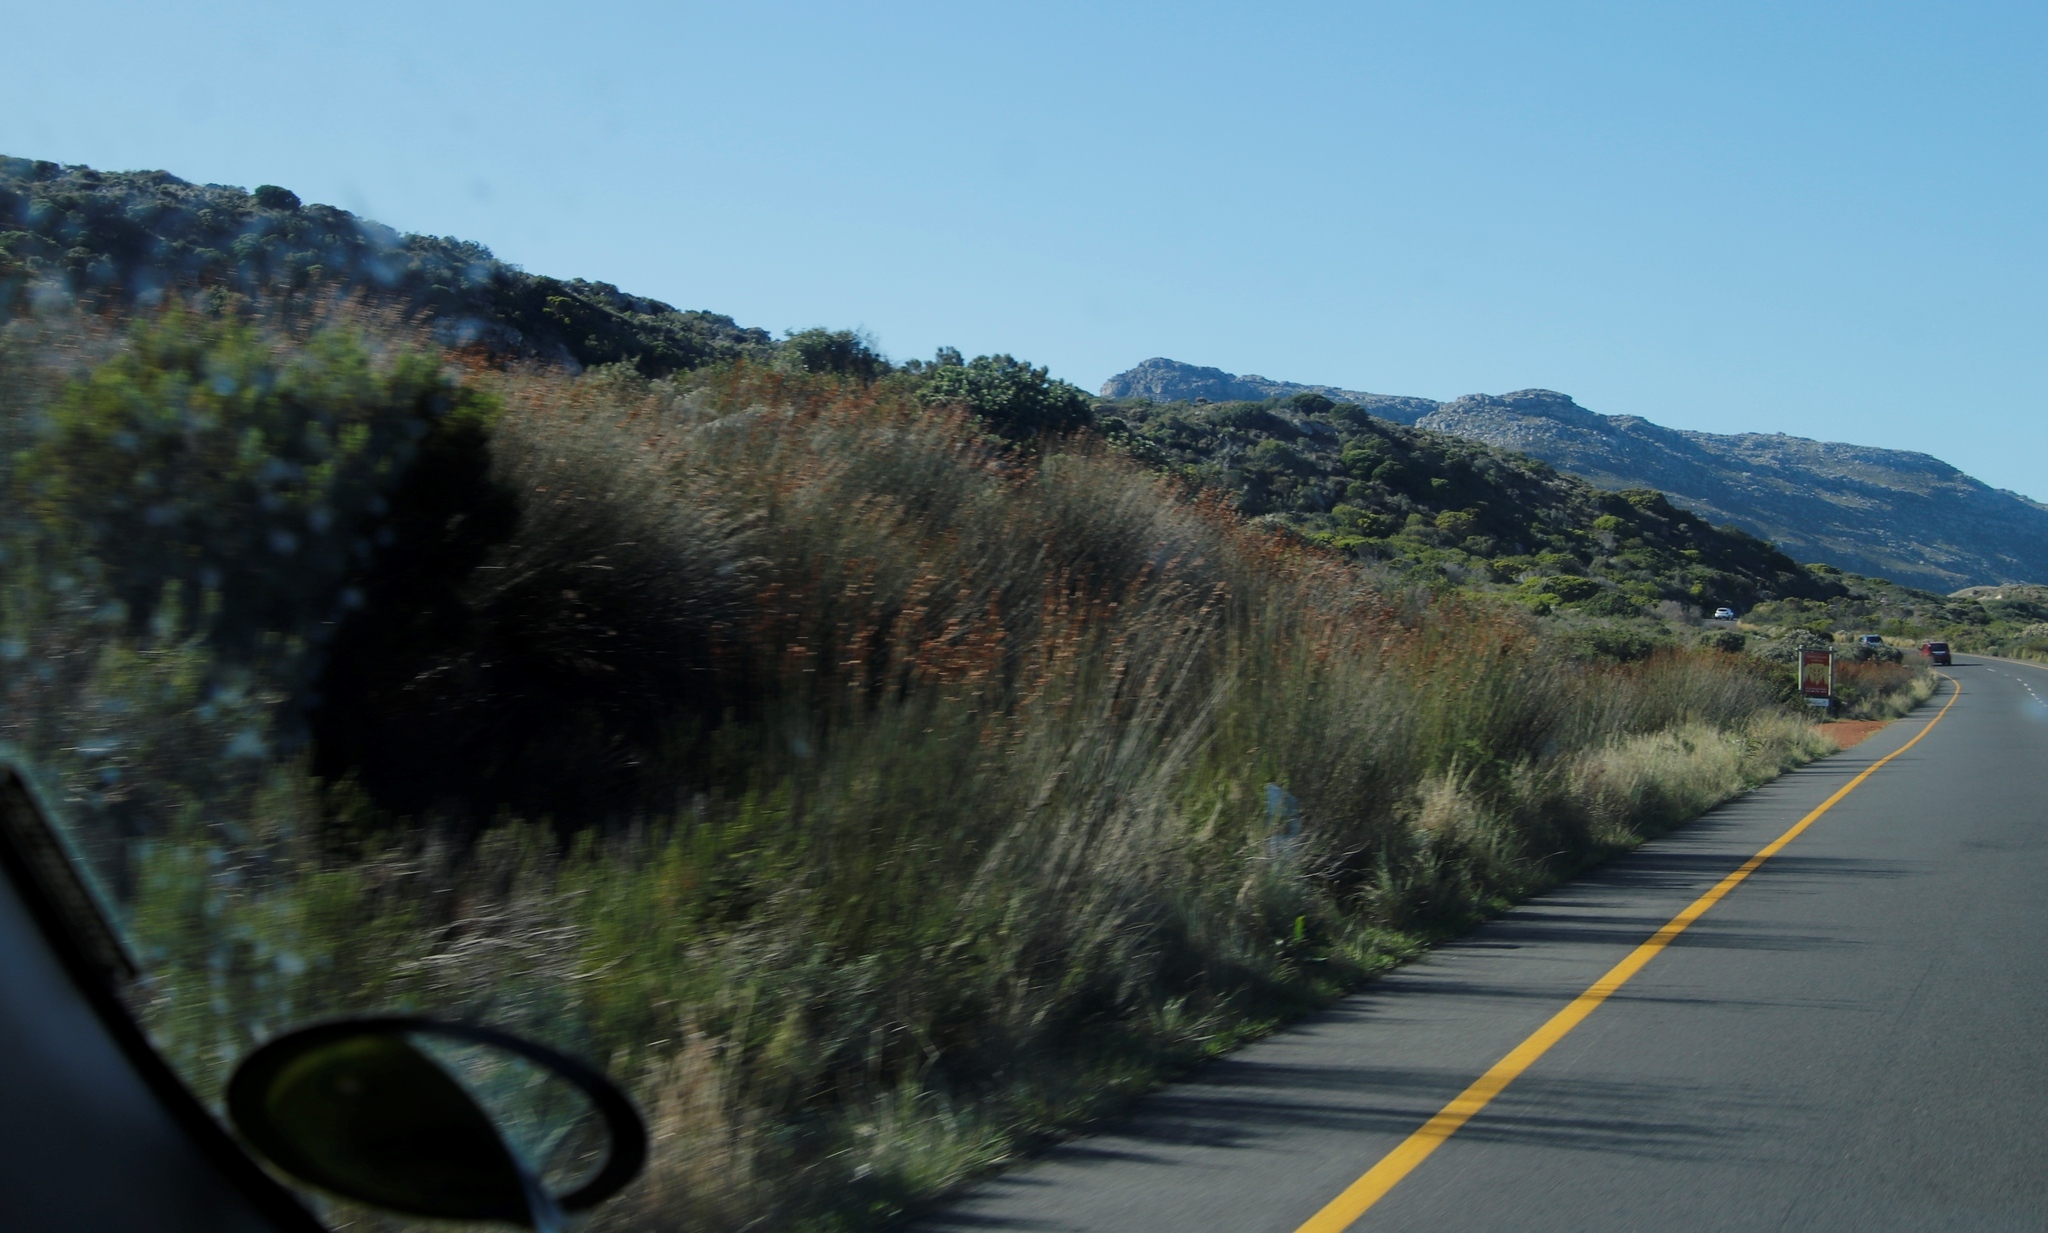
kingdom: Plantae
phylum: Tracheophyta
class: Liliopsida
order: Poales
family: Restionaceae
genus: Thamnochortus
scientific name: Thamnochortus insignis
